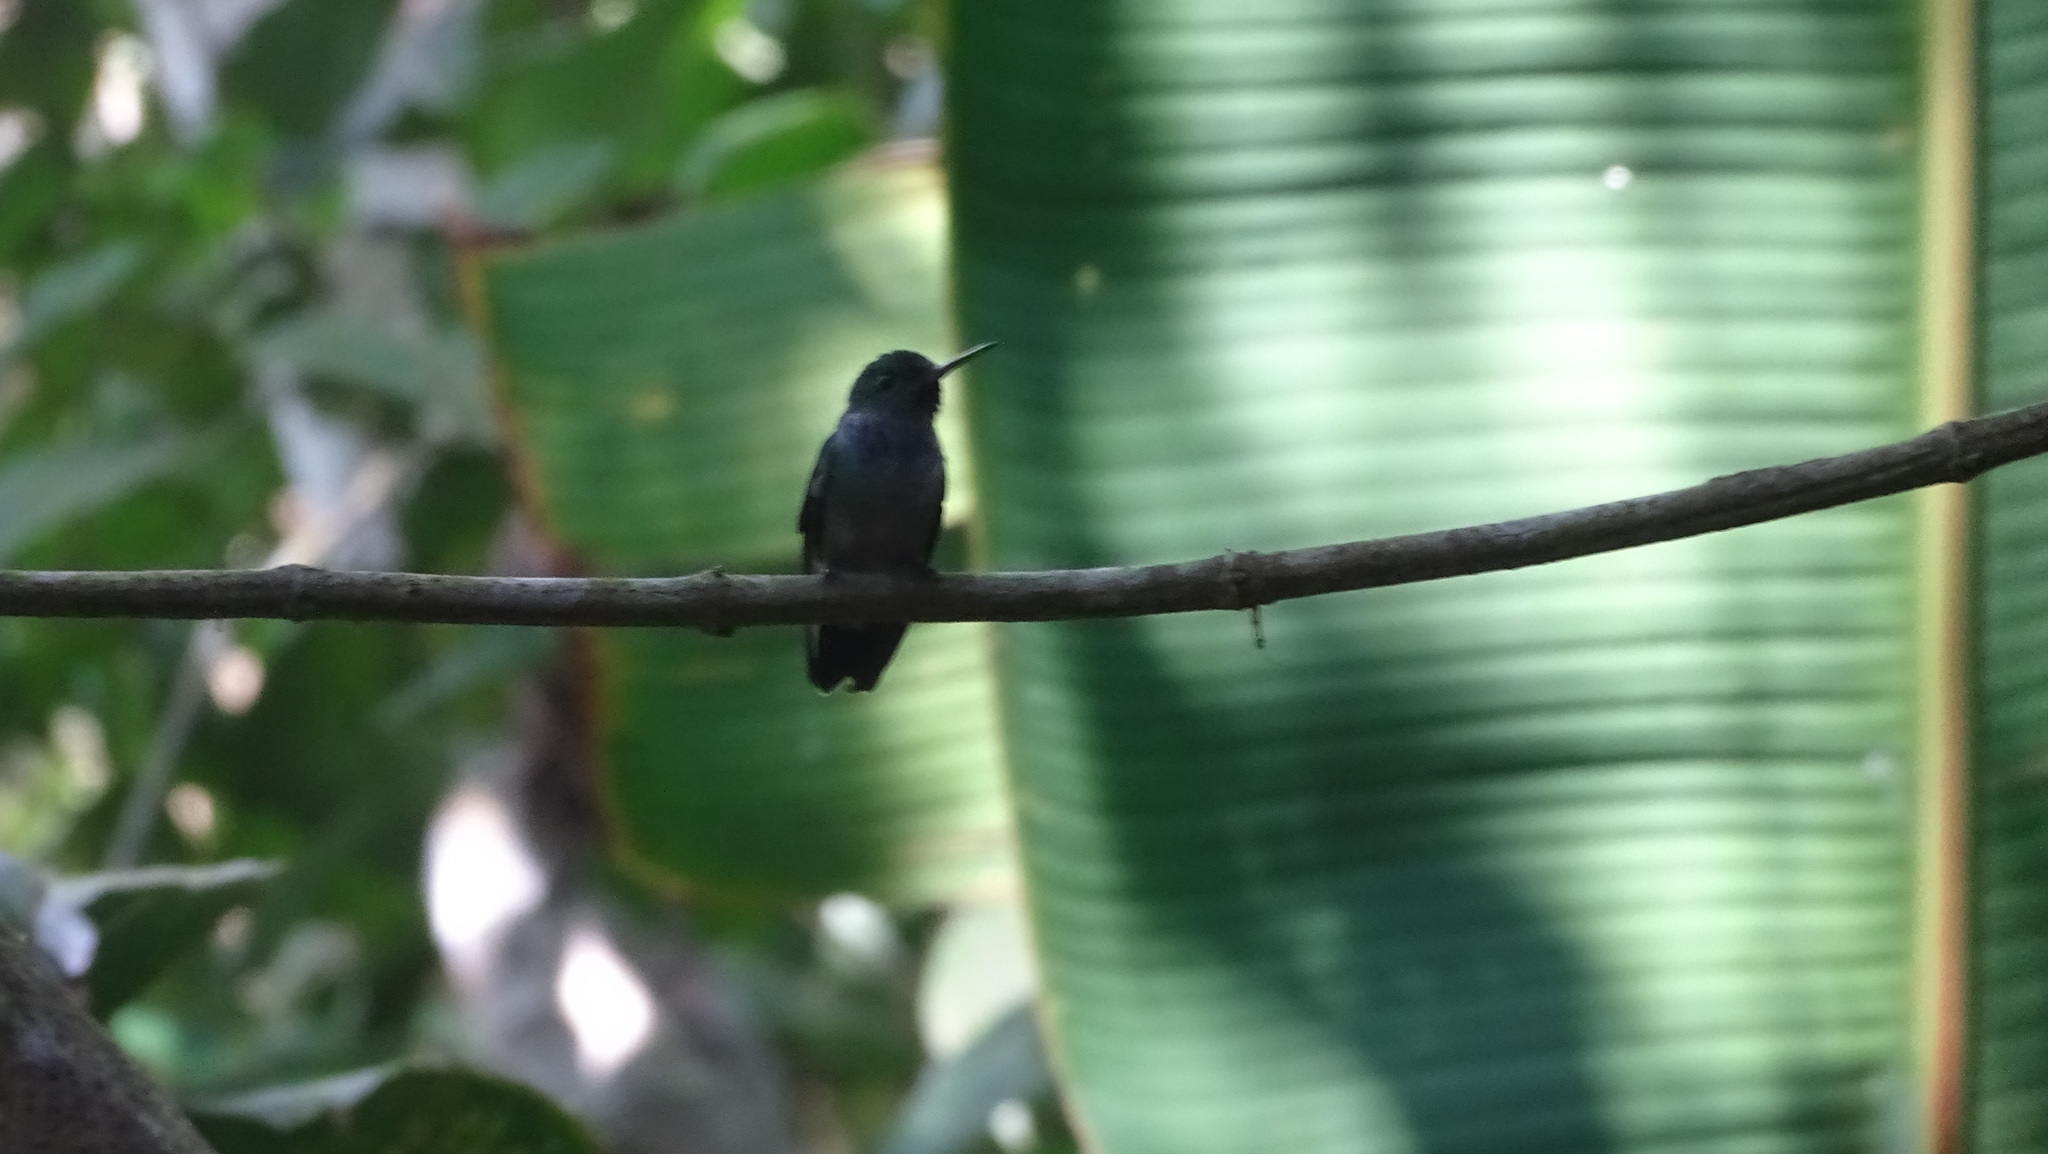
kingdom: Animalia
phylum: Chordata
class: Aves
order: Apodiformes
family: Trochilidae
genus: Polyerata
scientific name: Polyerata amabilis
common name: Blue-chested hummingbird
